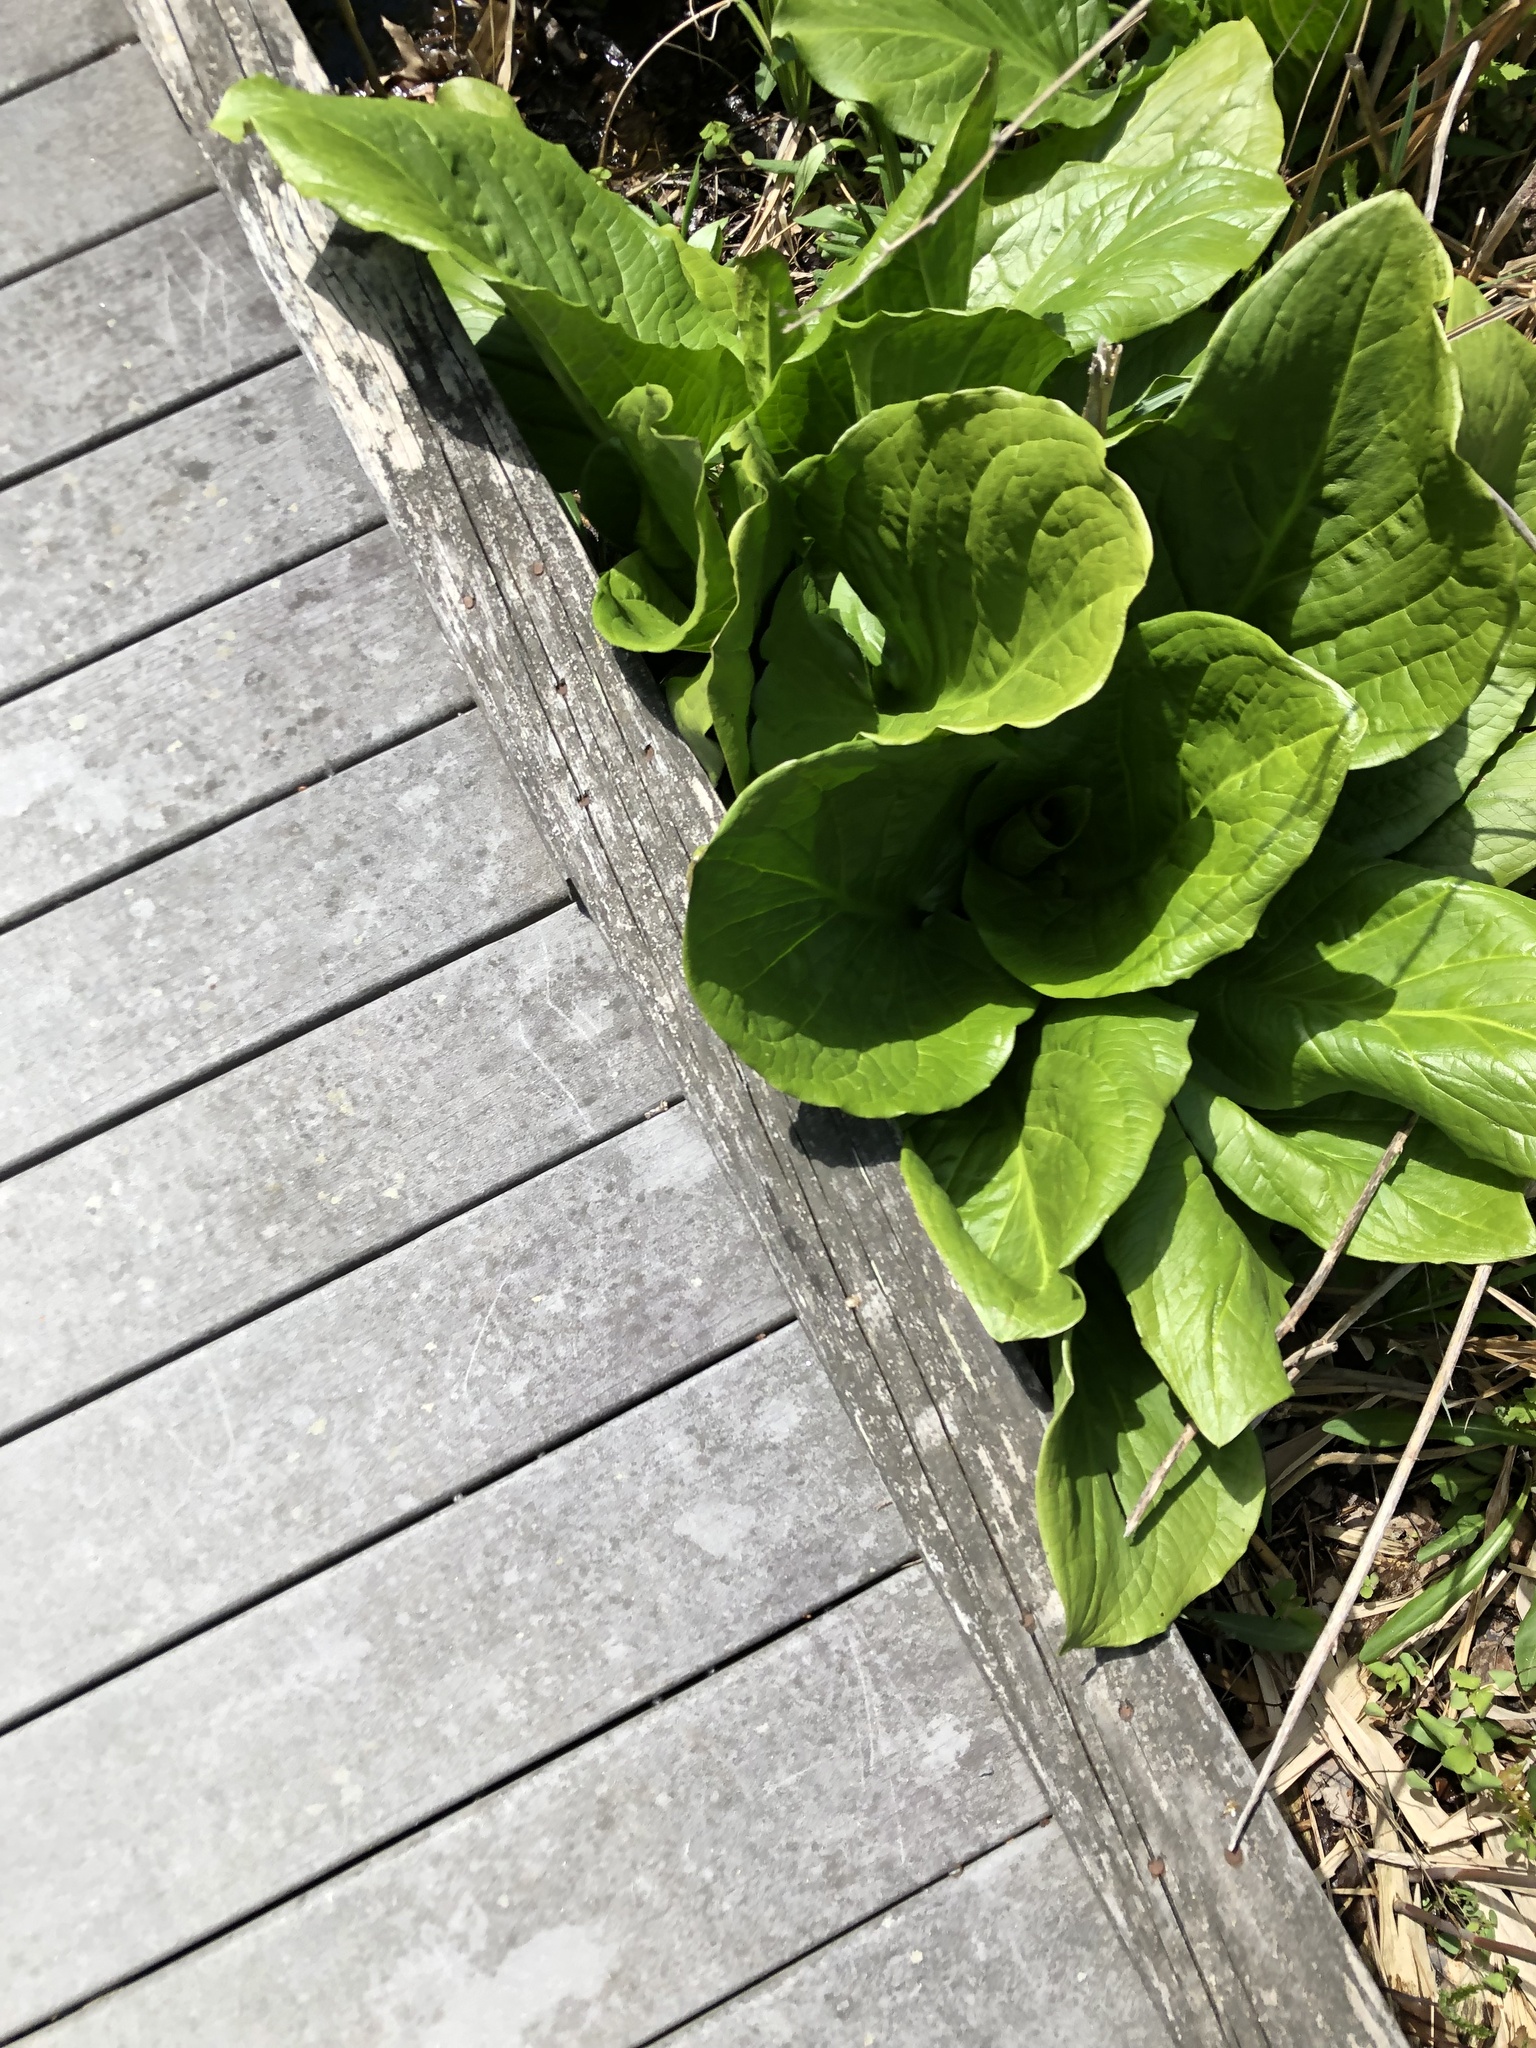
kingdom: Plantae
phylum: Tracheophyta
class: Liliopsida
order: Alismatales
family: Araceae
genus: Symplocarpus
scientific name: Symplocarpus foetidus
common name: Eastern skunk cabbage
